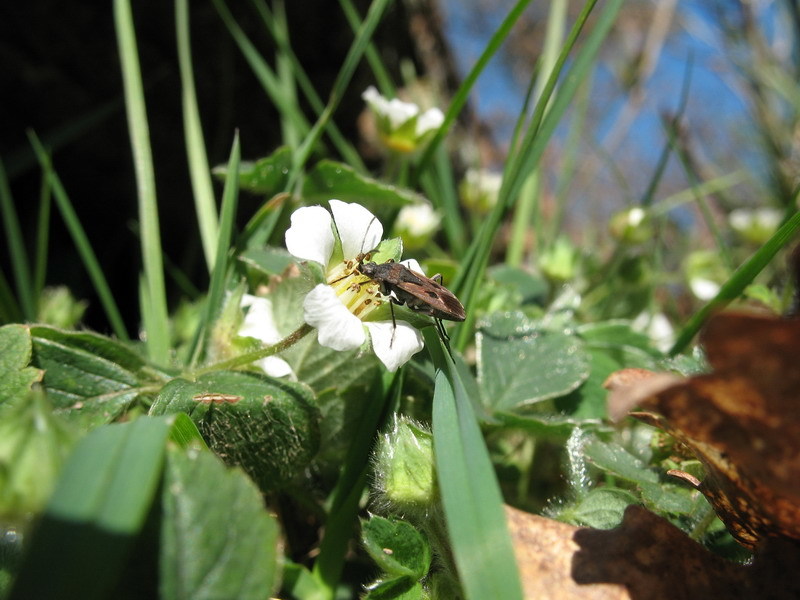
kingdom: Animalia
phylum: Arthropoda
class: Insecta
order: Hemiptera
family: Rhyparochromidae
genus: Rhyparochromus
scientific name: Rhyparochromus pini
